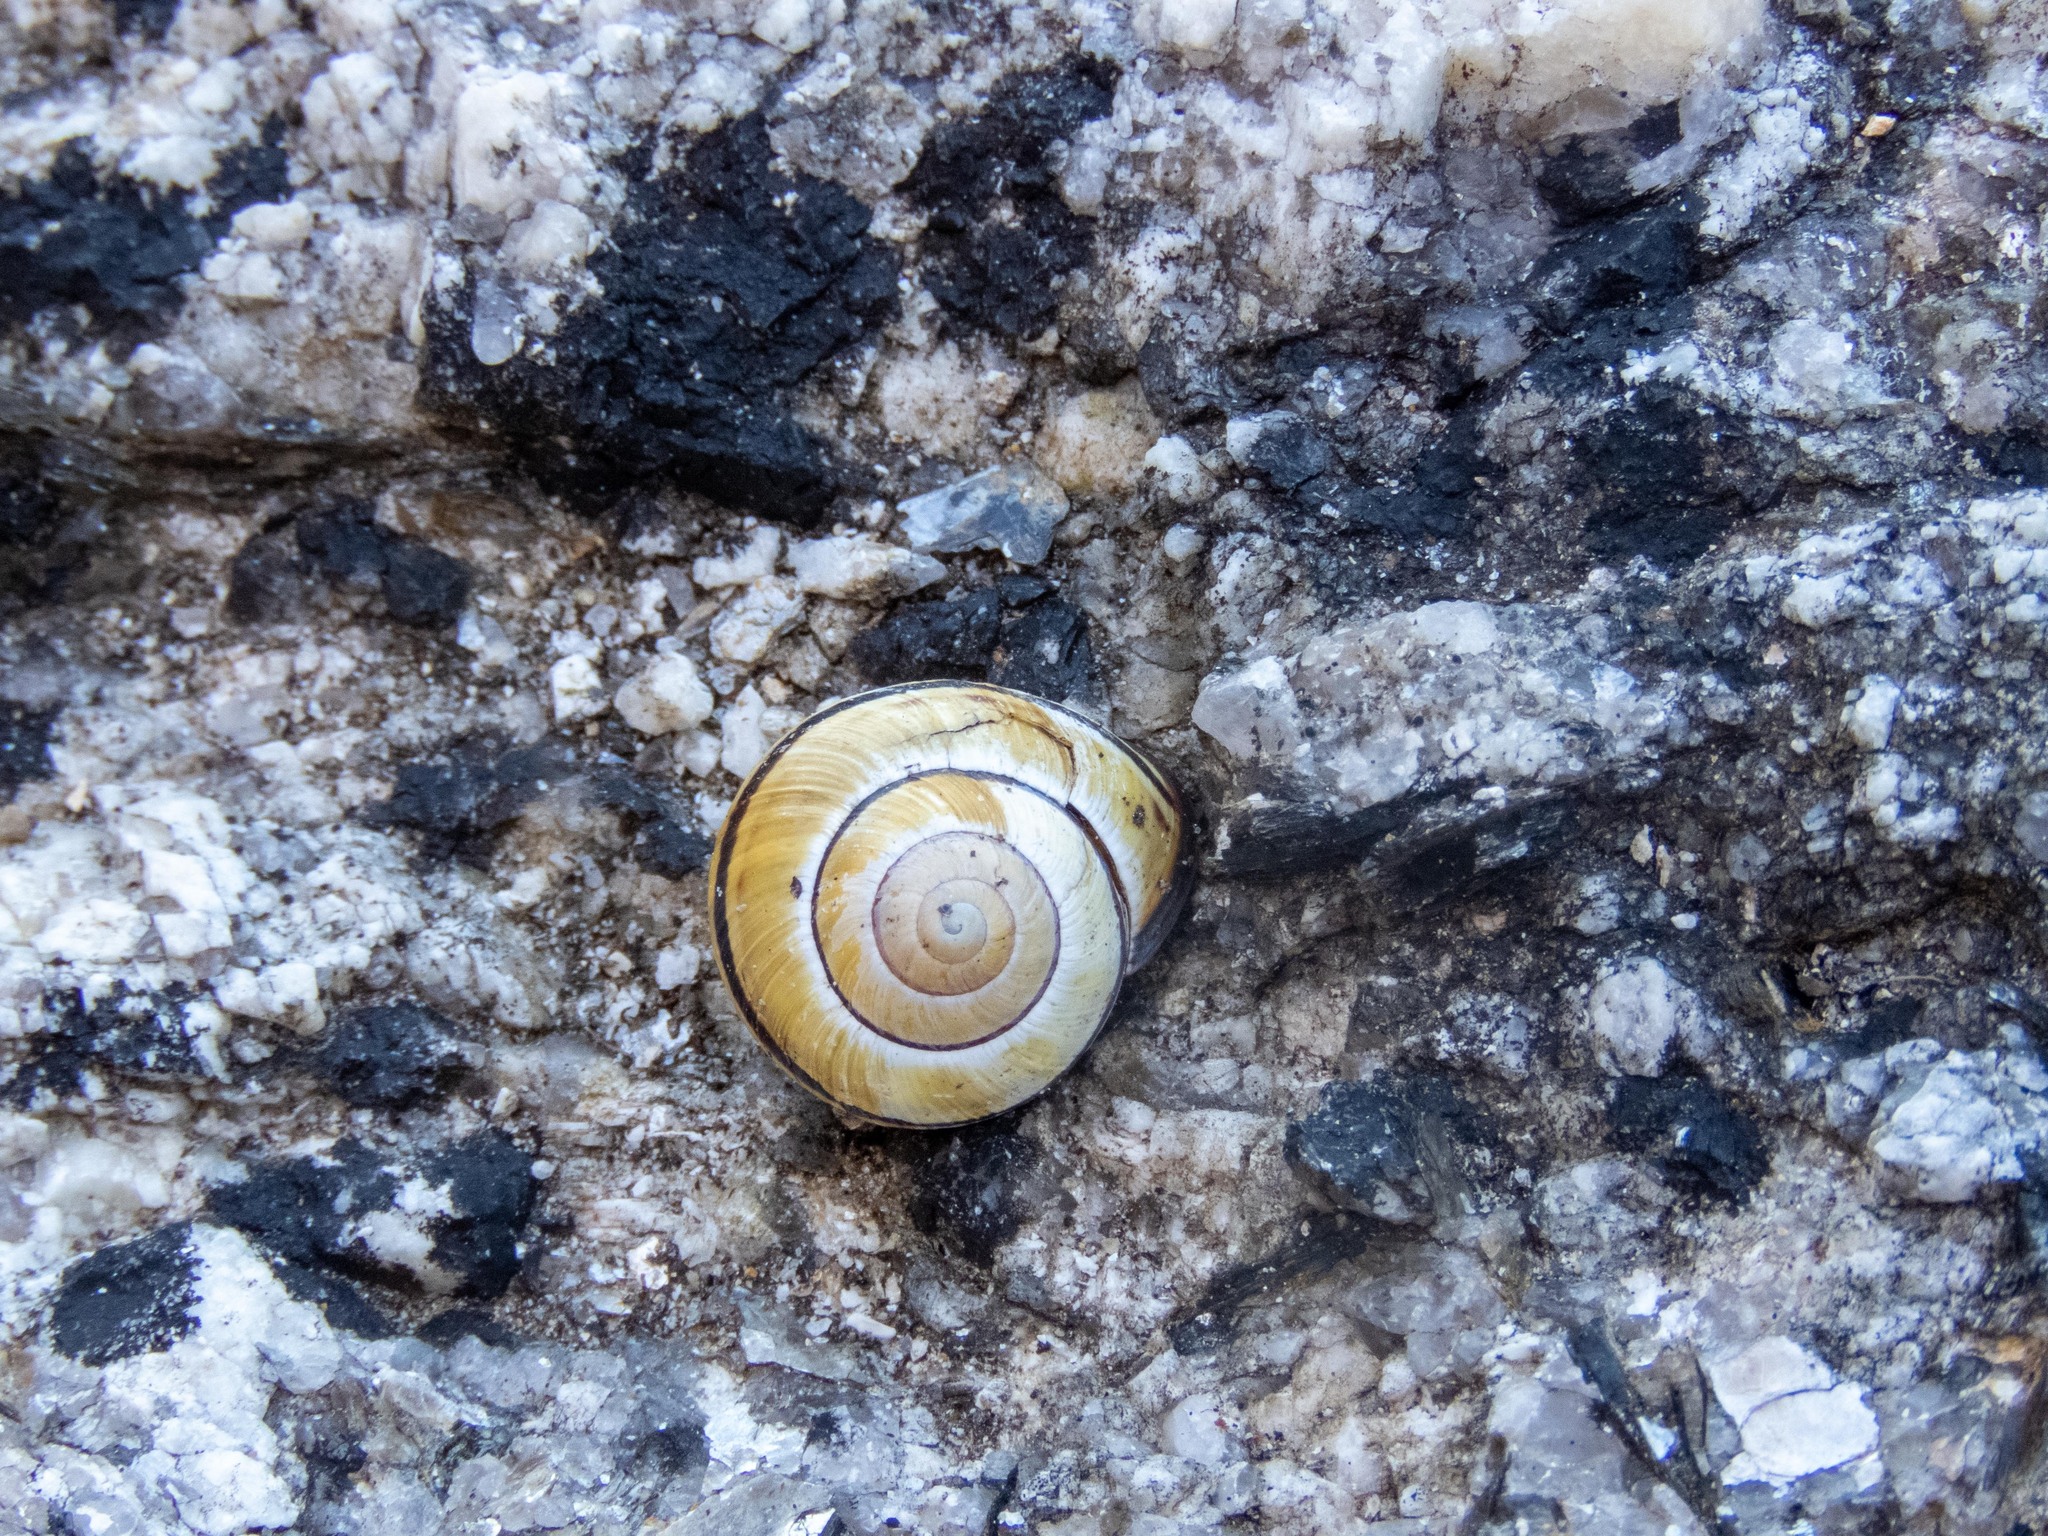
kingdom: Animalia
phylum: Mollusca
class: Gastropoda
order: Stylommatophora
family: Helicidae
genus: Cepaea
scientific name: Cepaea nemoralis
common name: Grovesnail
